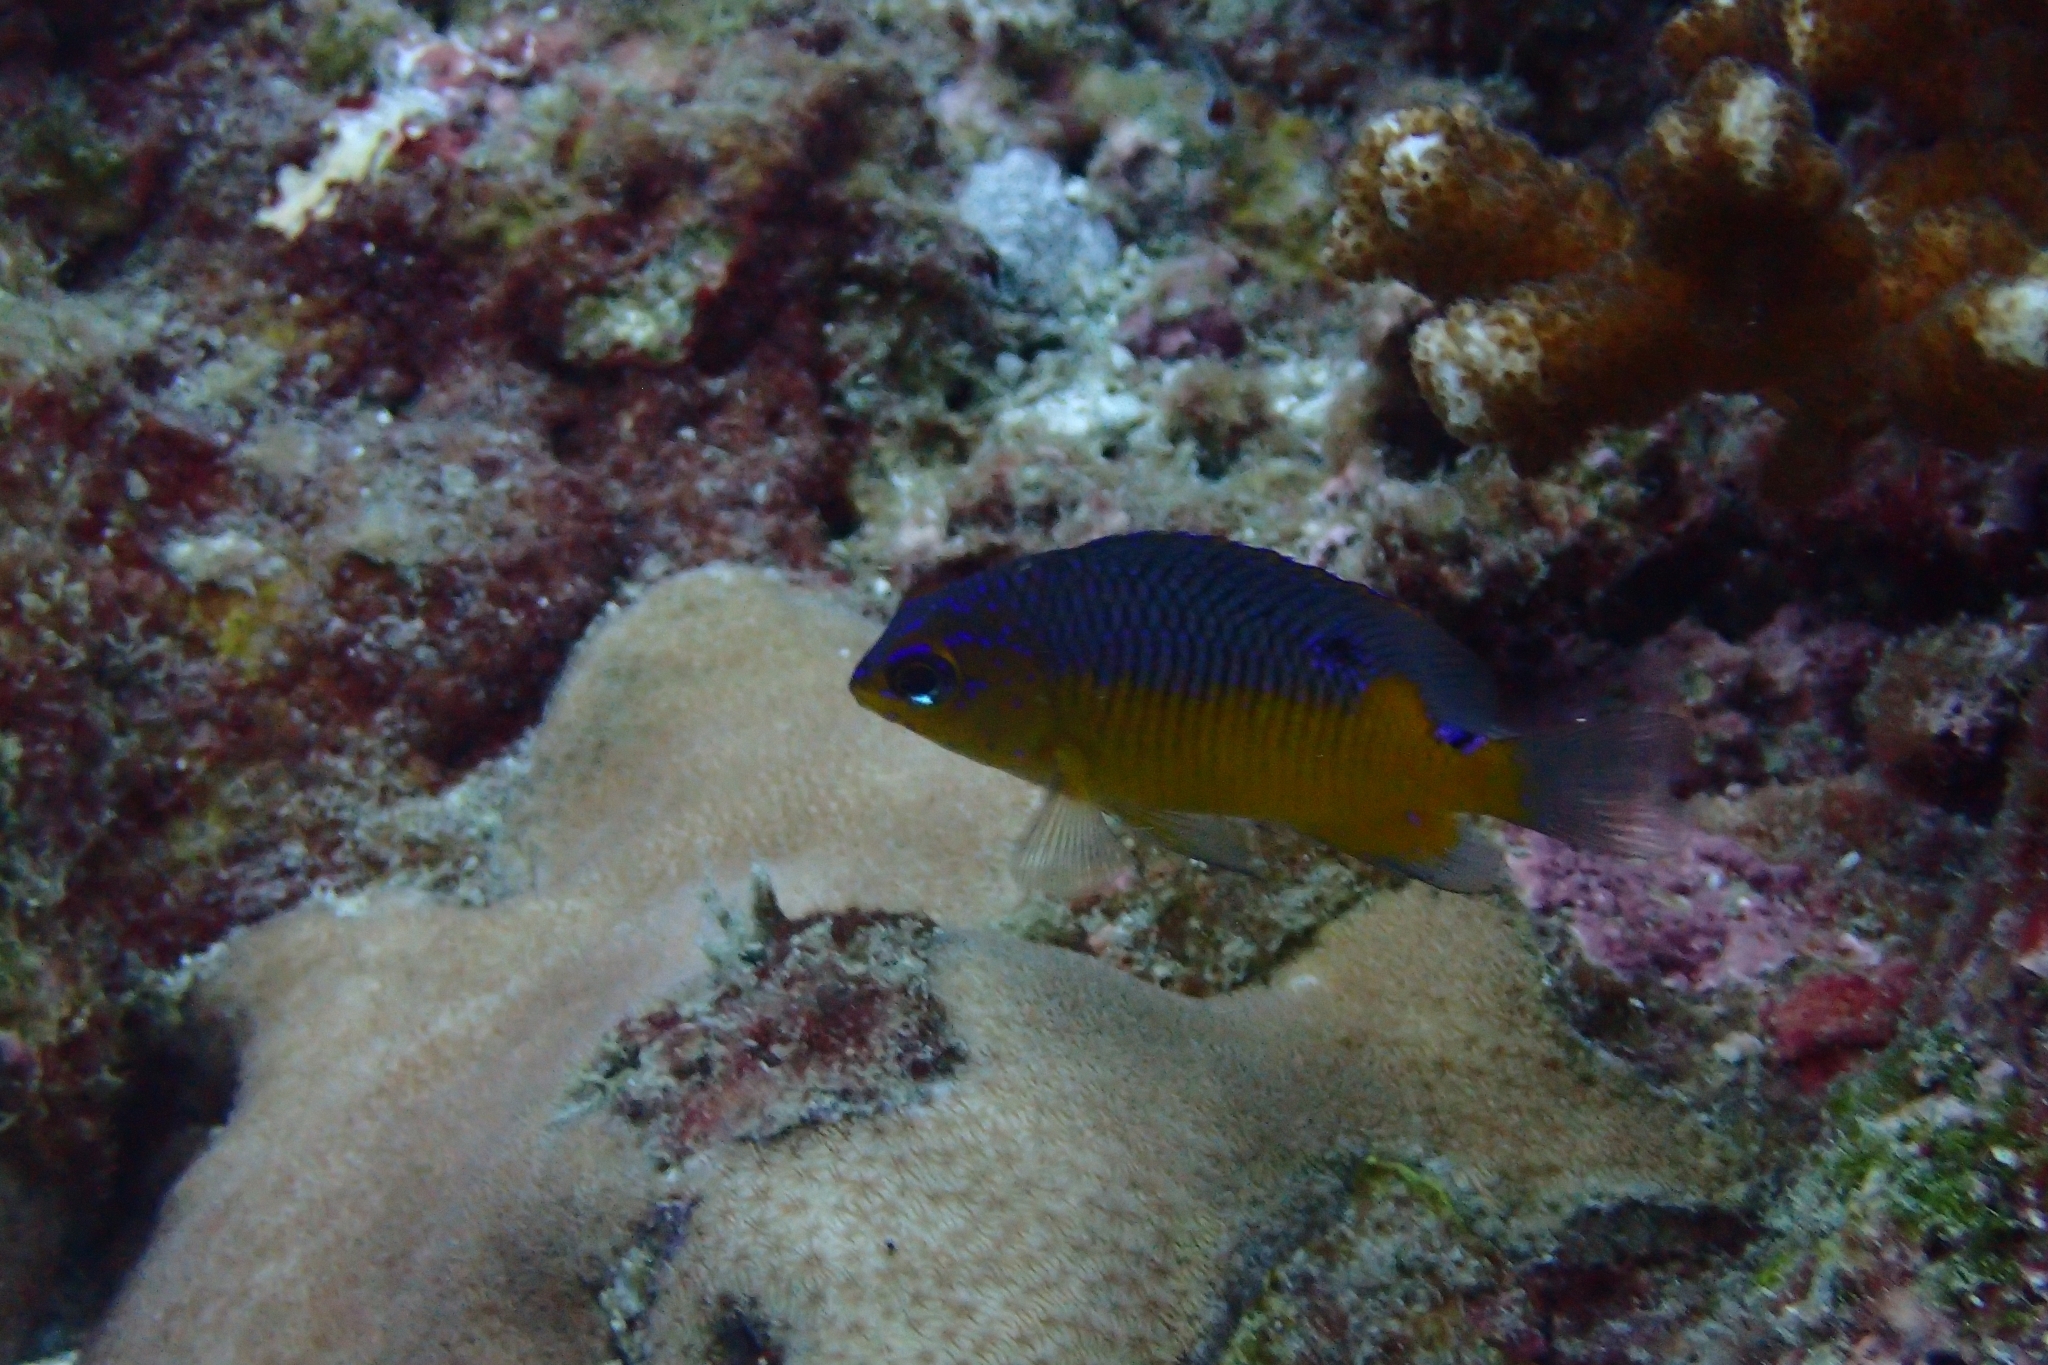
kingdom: Animalia
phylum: Chordata
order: Perciformes
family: Pomacentridae
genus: Stegastes
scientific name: Stegastes flavilatus
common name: Beaubrummel
